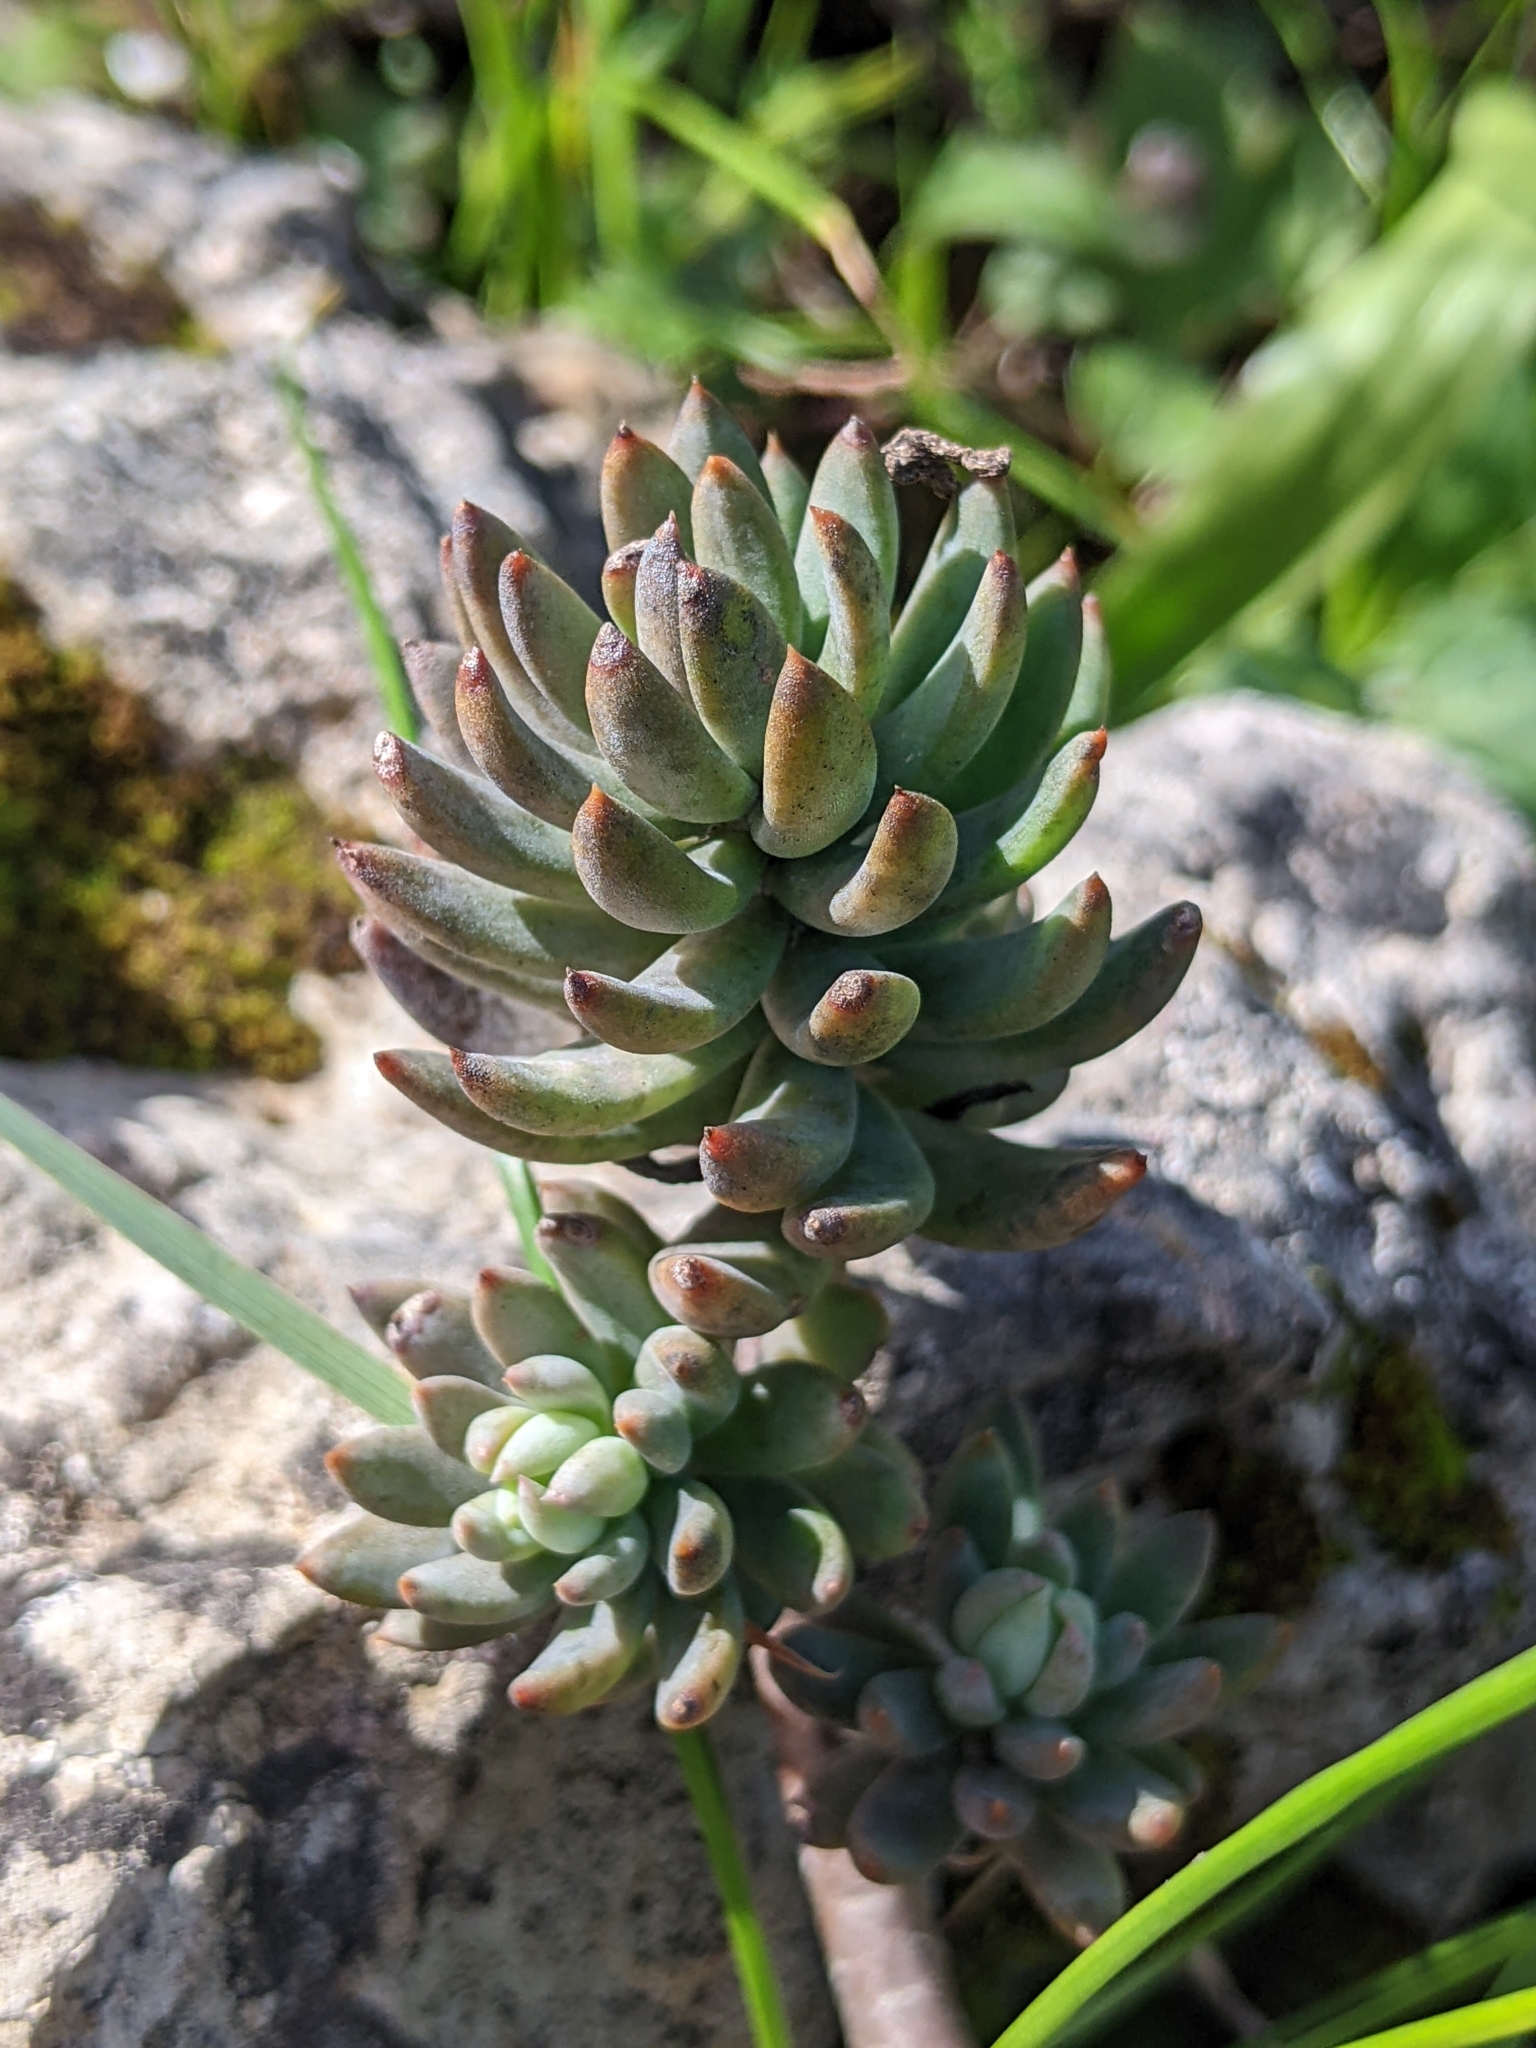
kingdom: Plantae
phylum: Tracheophyta
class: Magnoliopsida
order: Saxifragales
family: Crassulaceae
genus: Petrosedum
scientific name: Petrosedum sediforme
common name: Pale stonecrop
